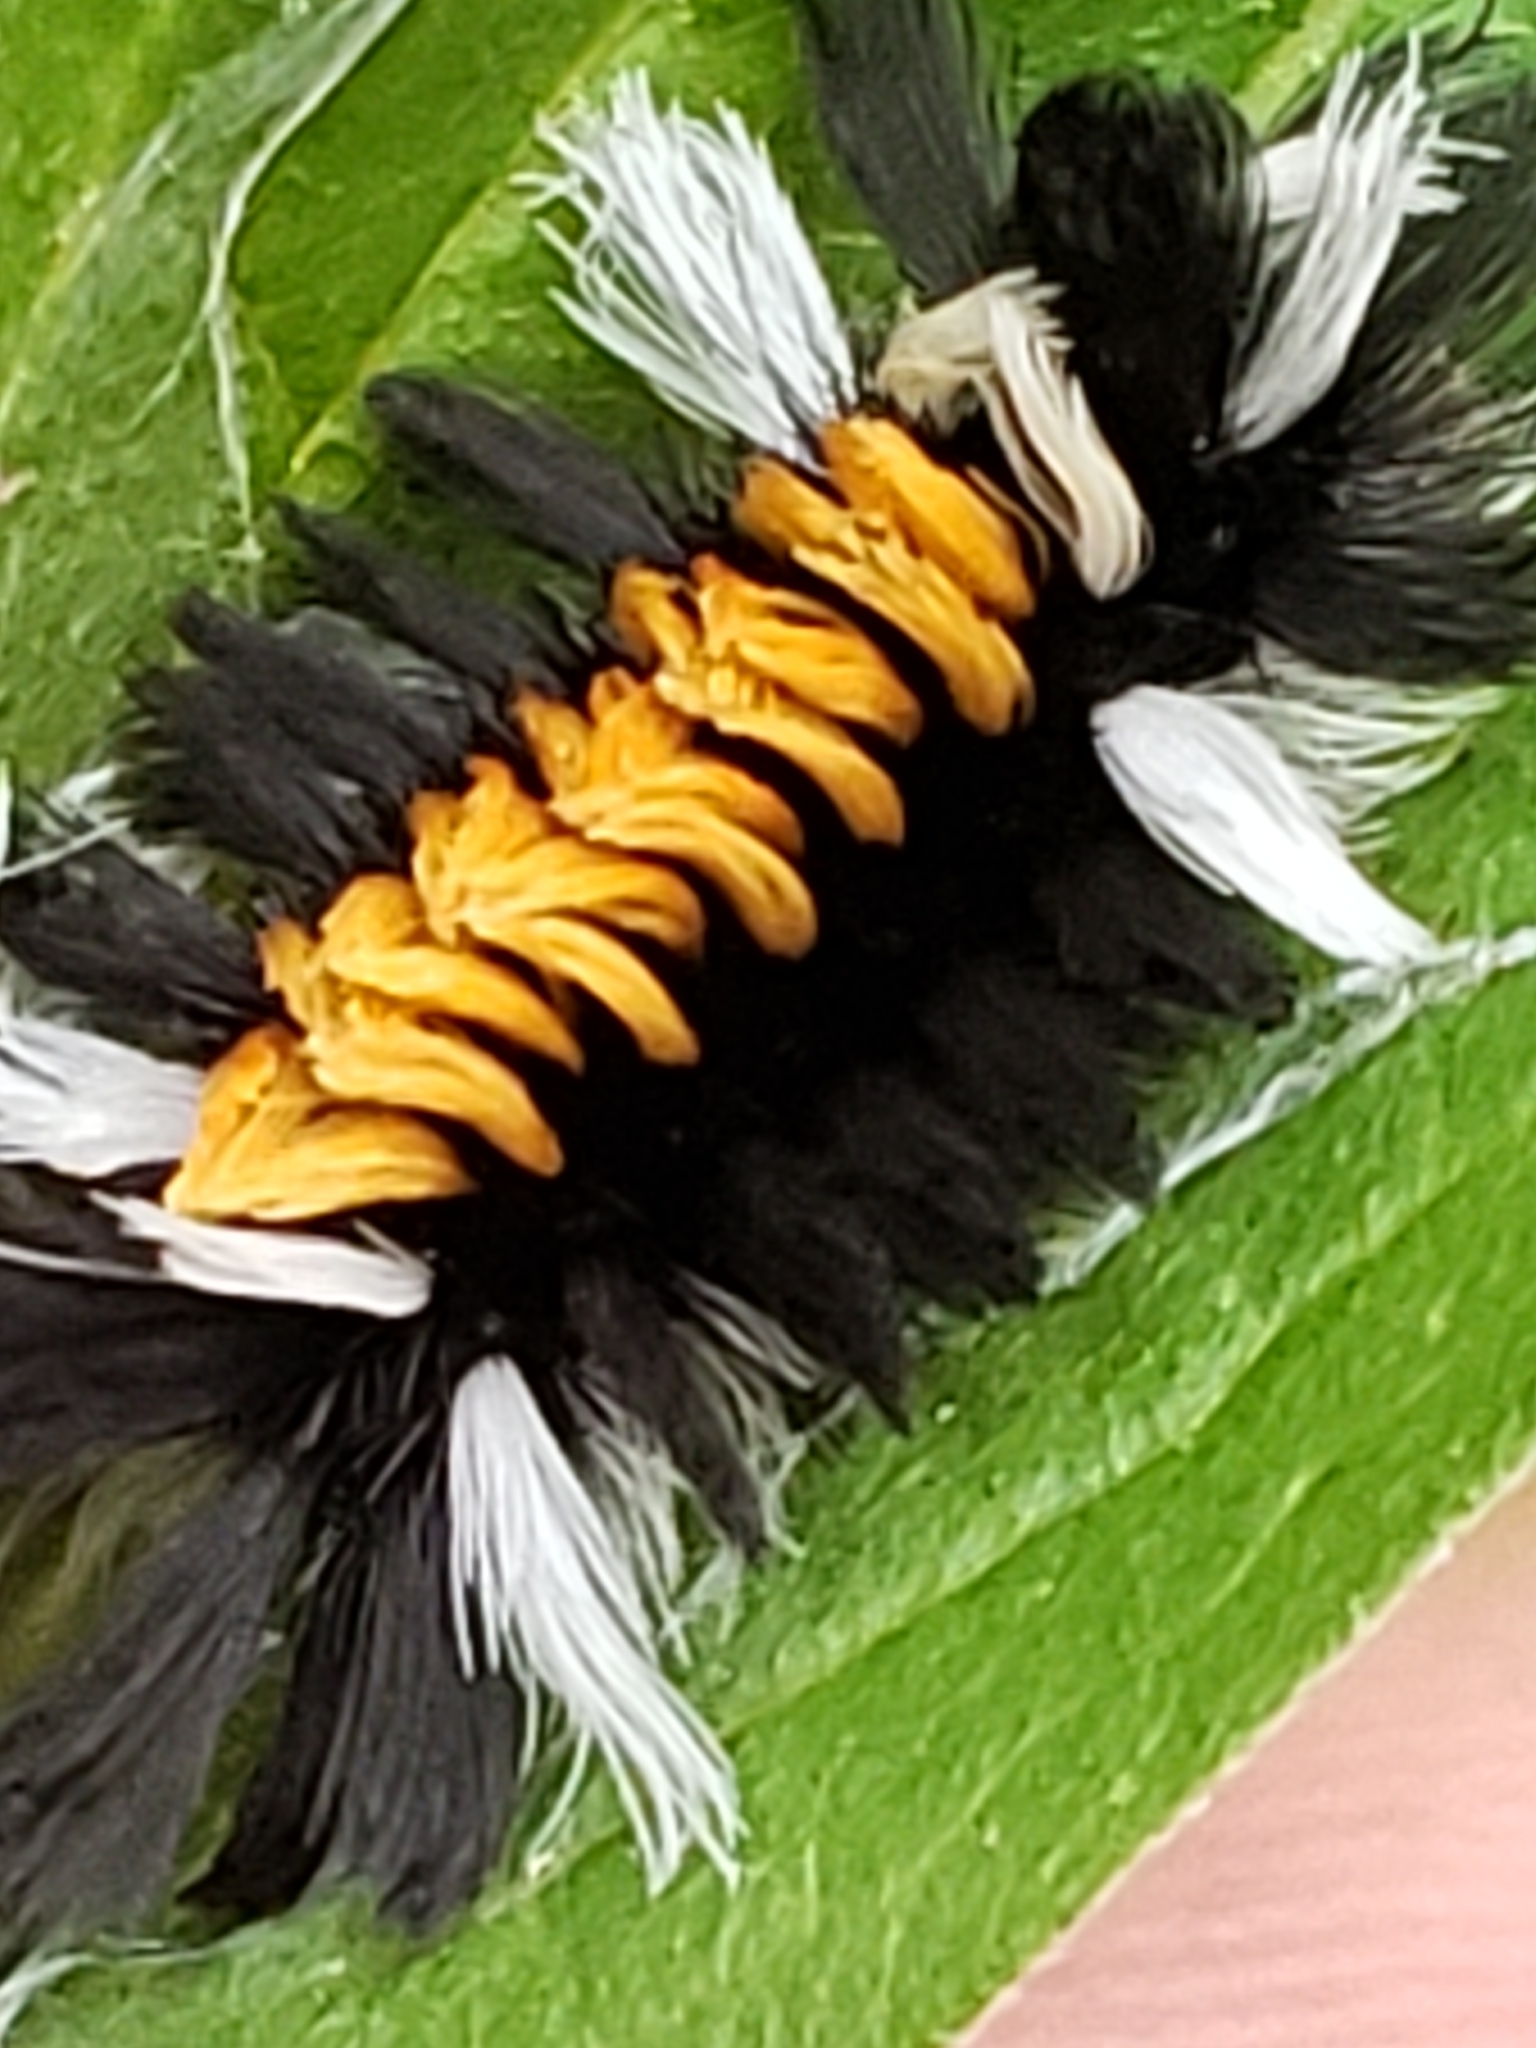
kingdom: Animalia
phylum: Arthropoda
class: Insecta
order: Lepidoptera
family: Erebidae
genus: Euchaetes
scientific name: Euchaetes egle
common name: Milkweed tussock moth
